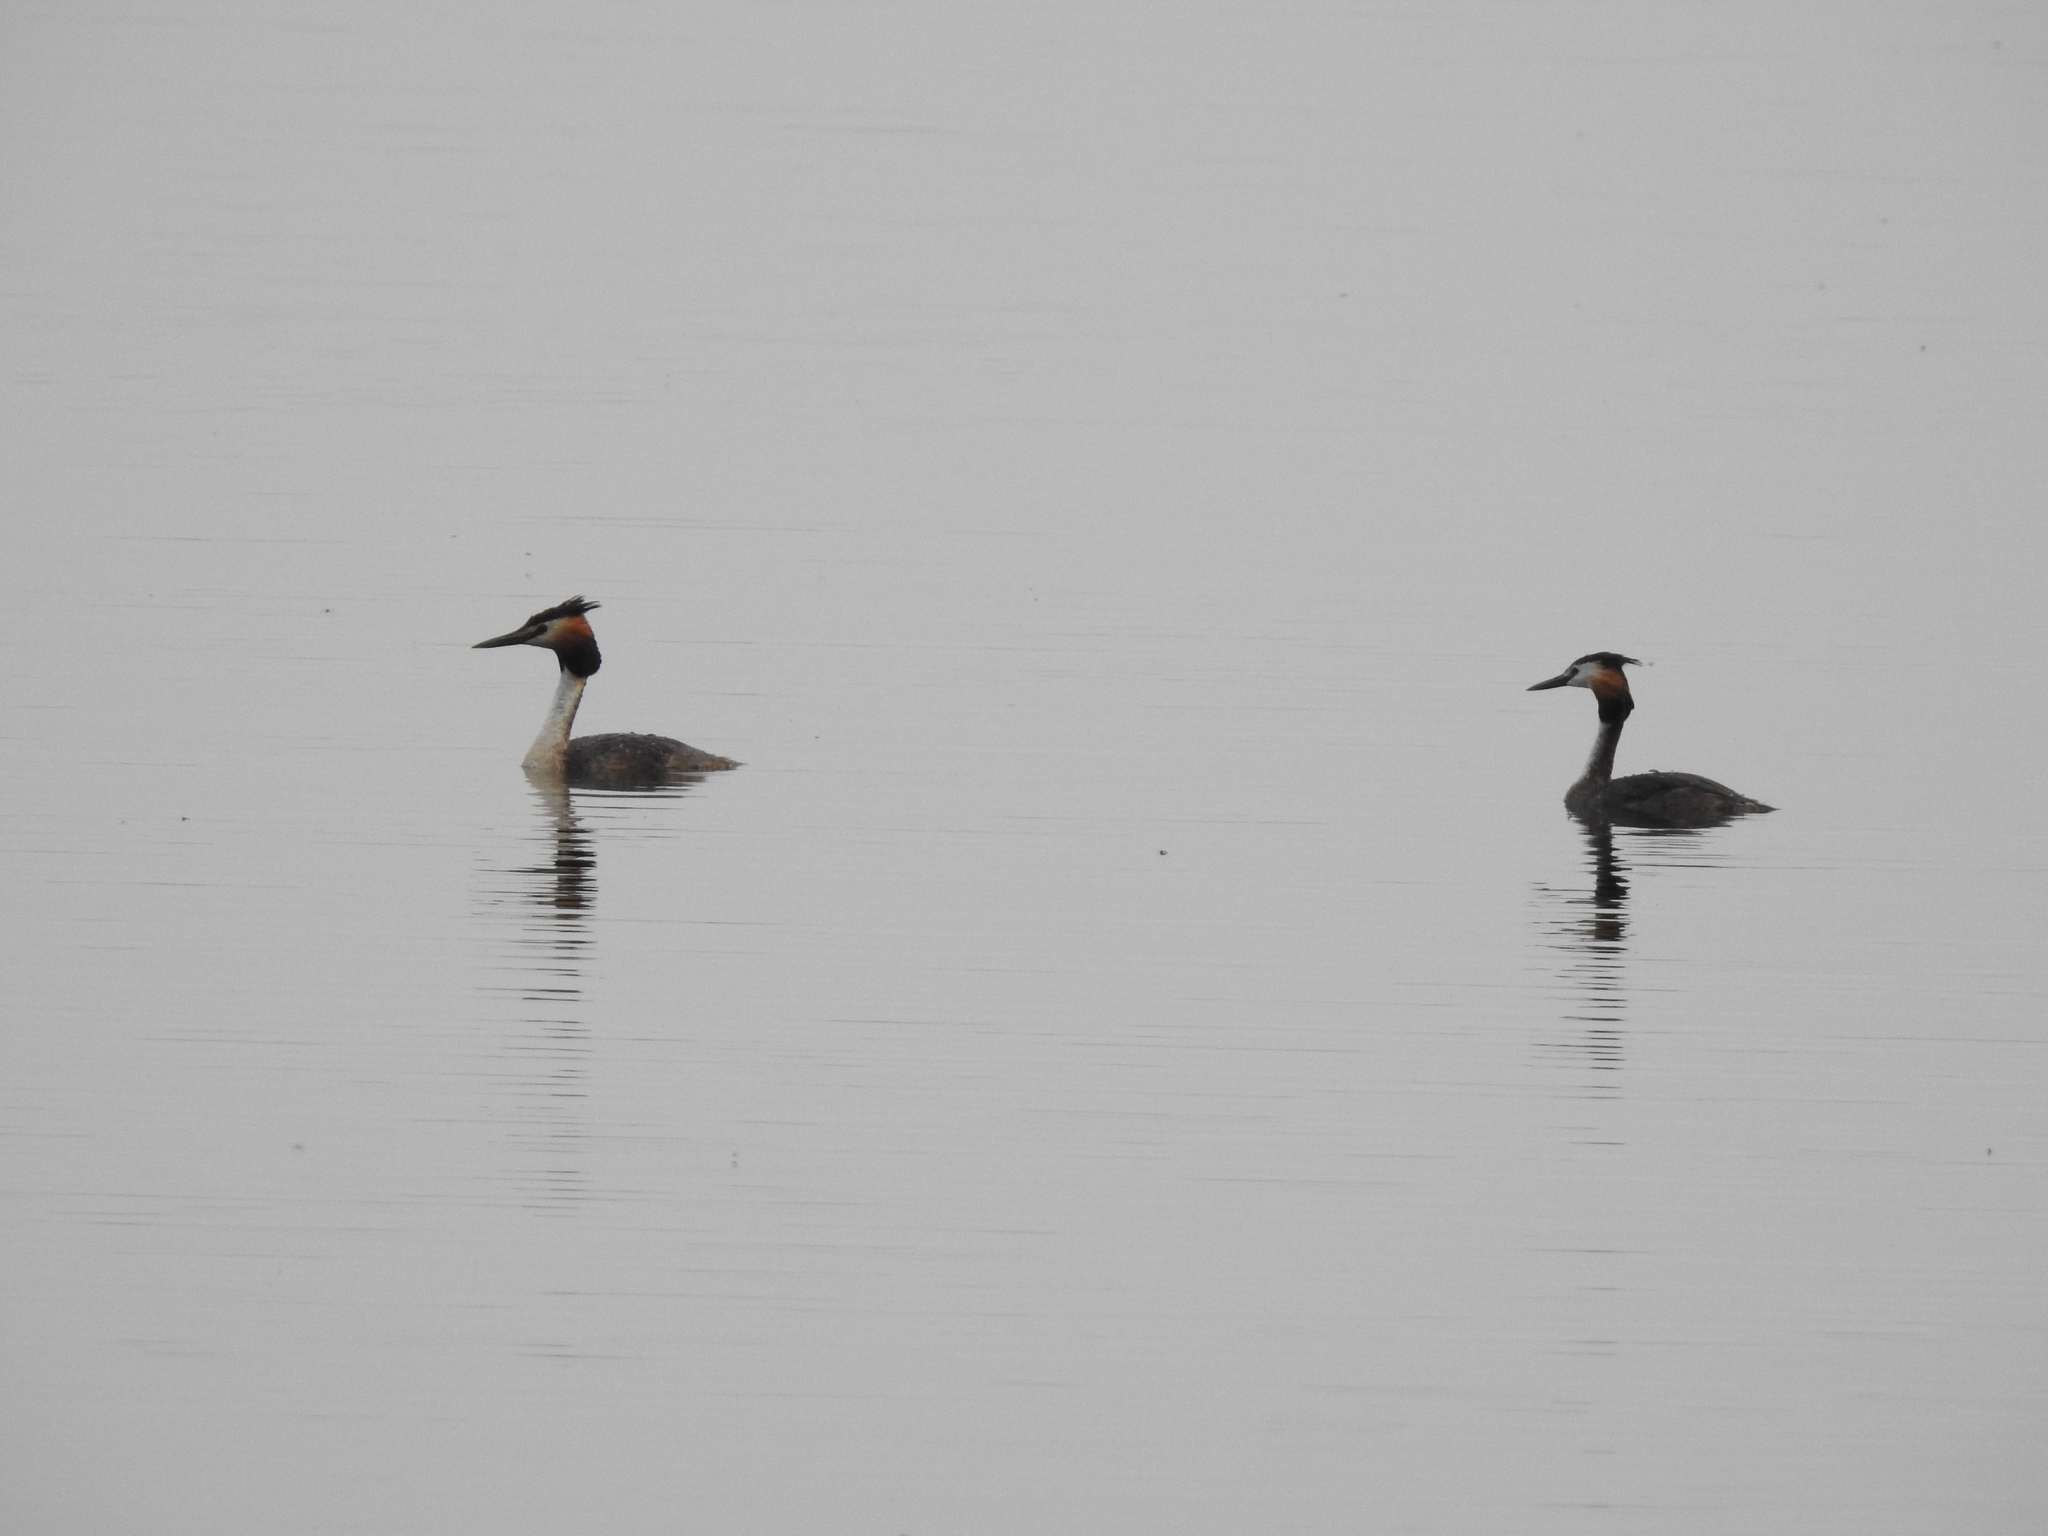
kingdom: Animalia
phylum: Chordata
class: Aves
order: Podicipediformes
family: Podicipedidae
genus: Podiceps
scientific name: Podiceps cristatus
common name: Great crested grebe
